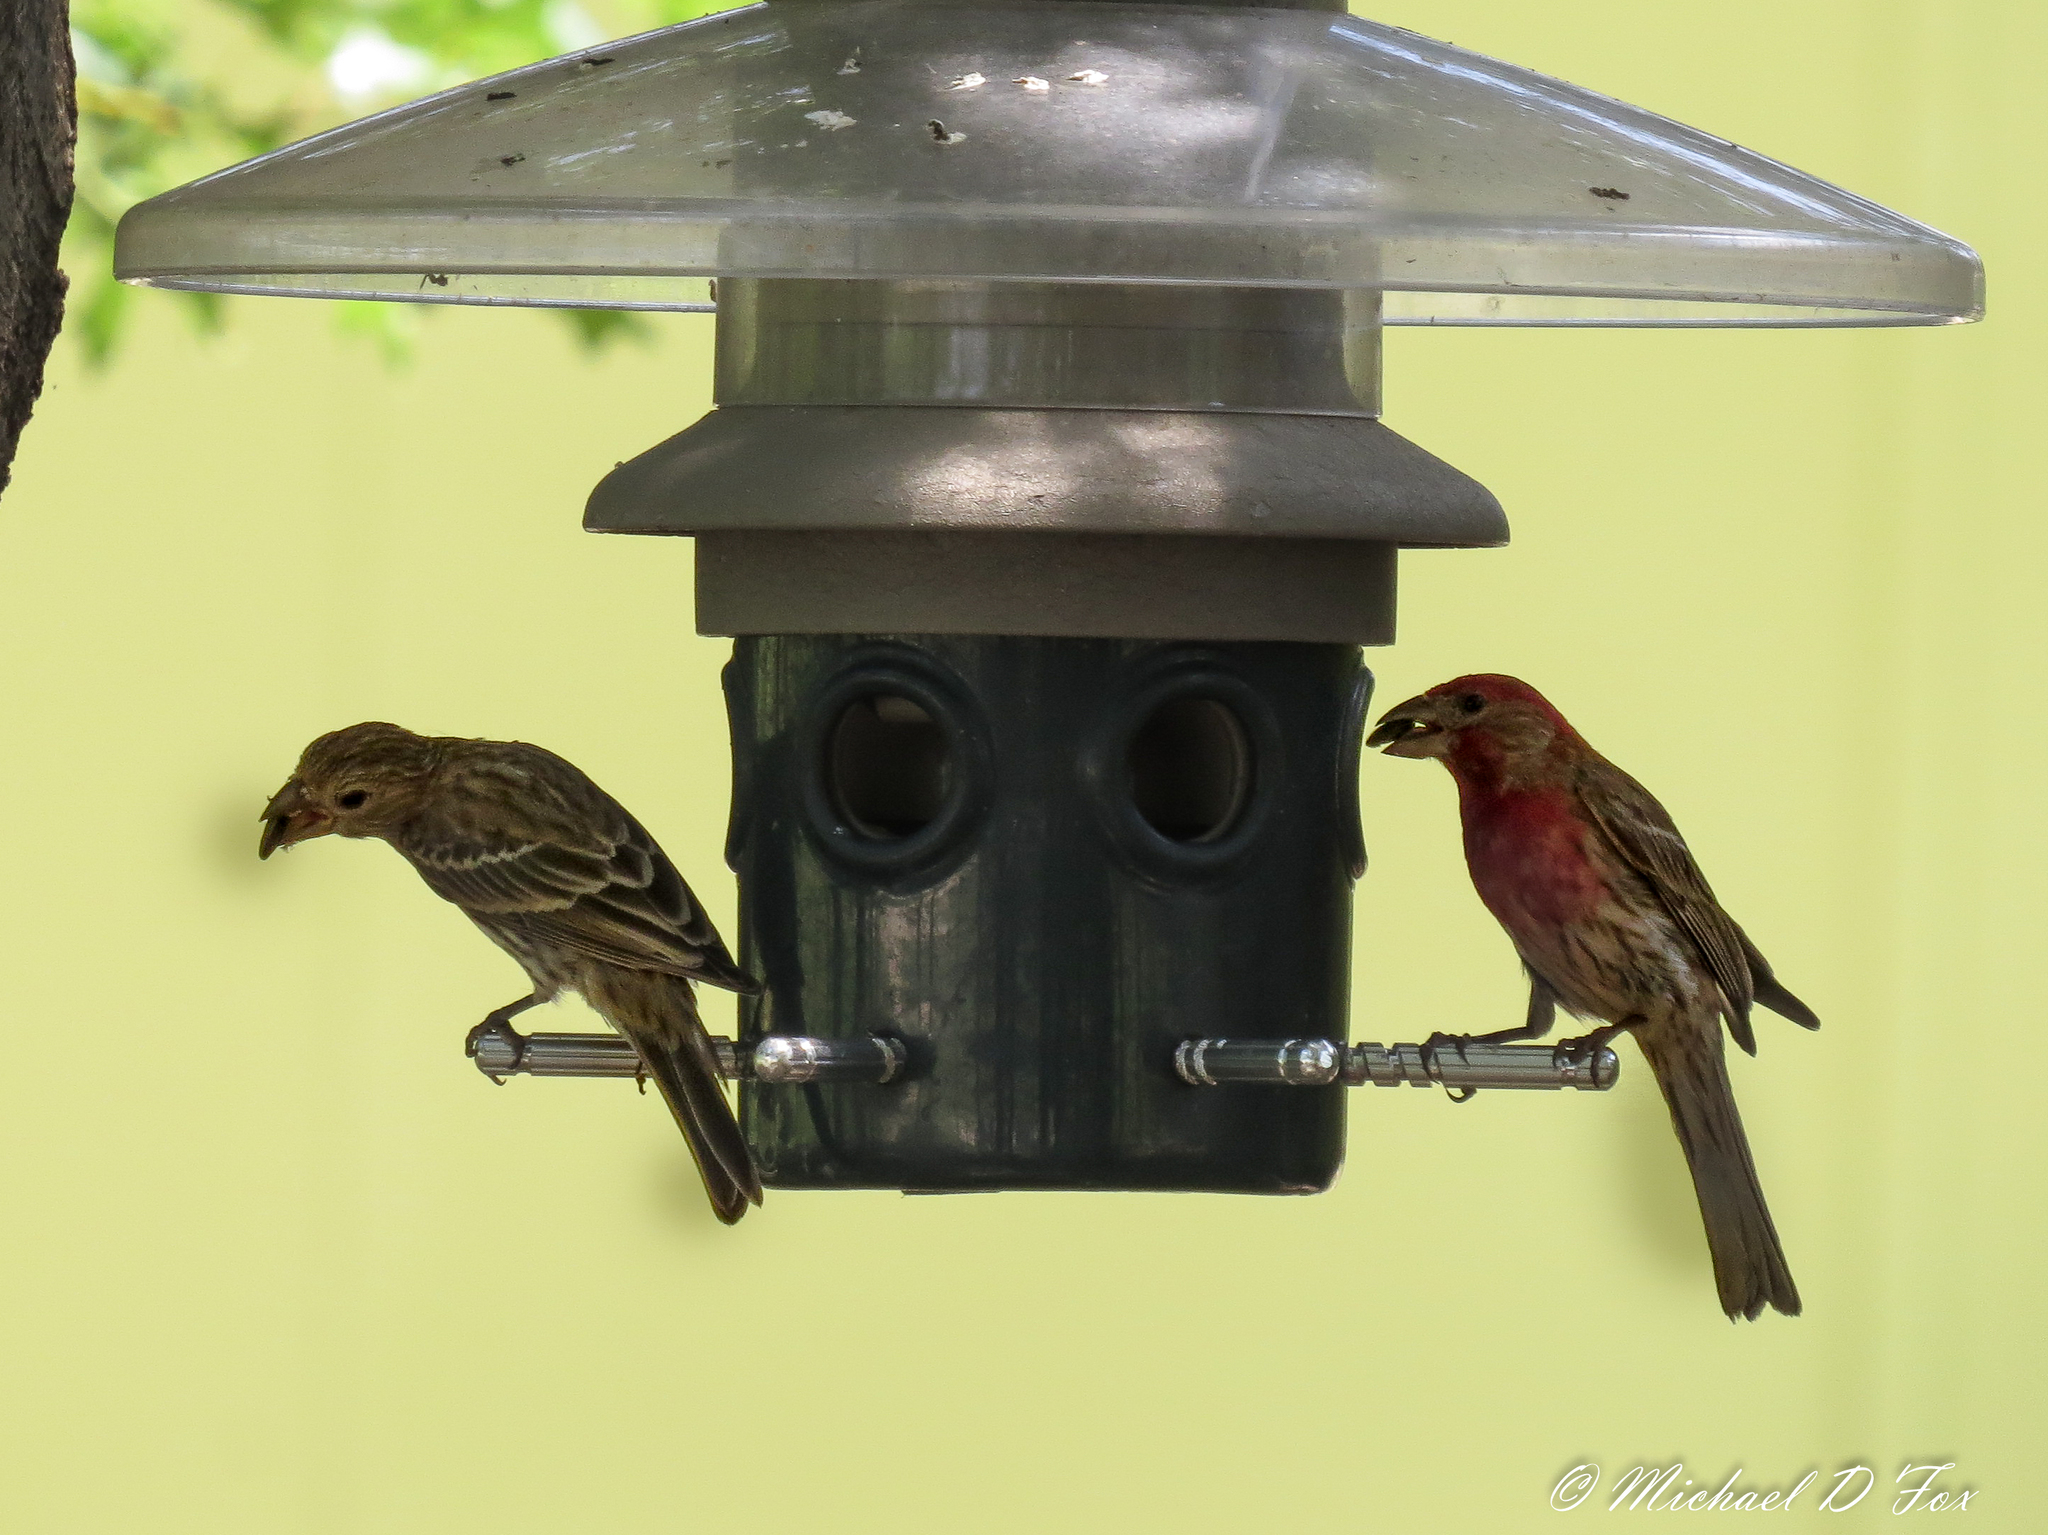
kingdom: Animalia
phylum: Chordata
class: Aves
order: Passeriformes
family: Fringillidae
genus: Haemorhous
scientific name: Haemorhous mexicanus
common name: House finch
